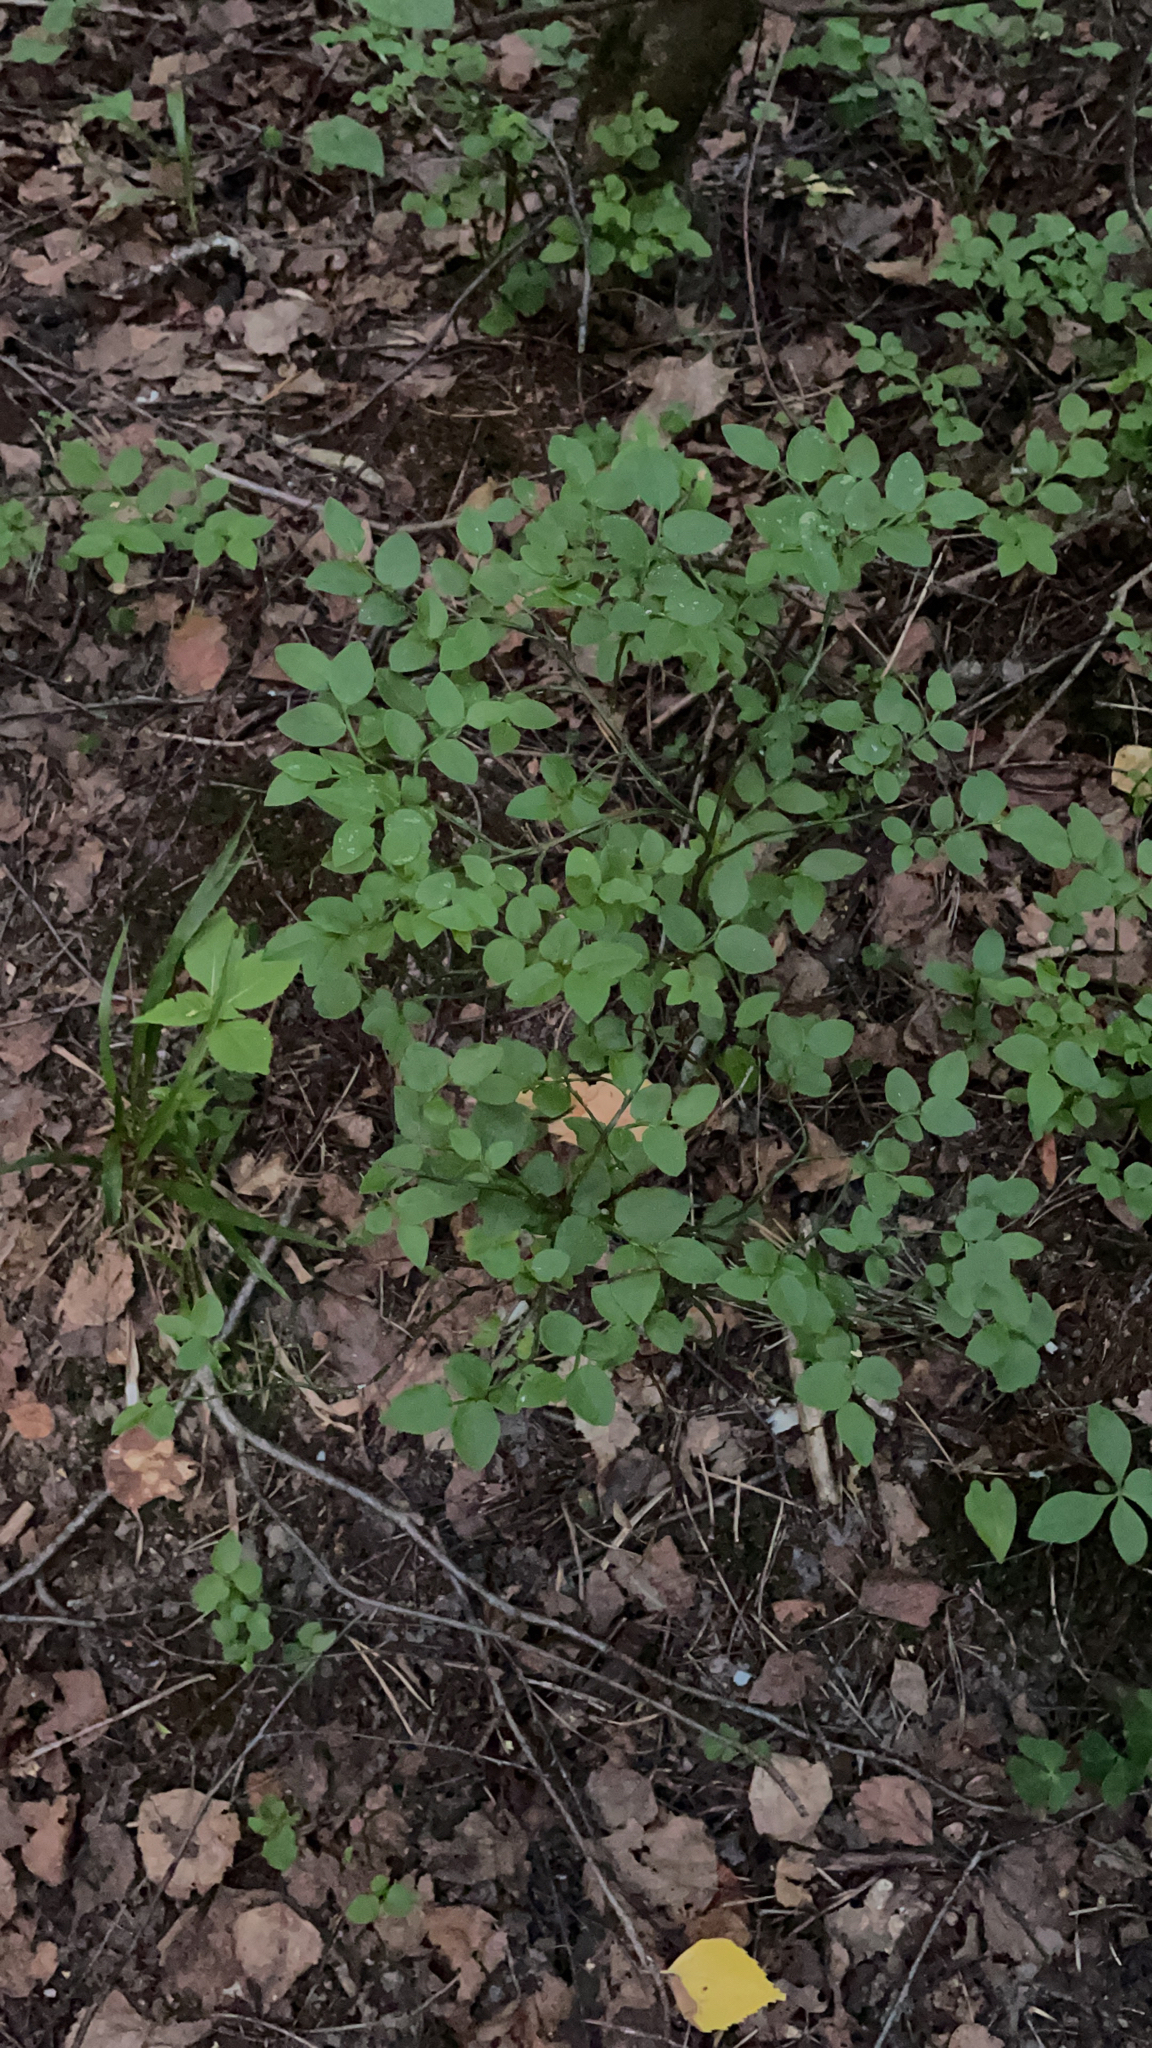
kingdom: Plantae
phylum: Tracheophyta
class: Magnoliopsida
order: Ericales
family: Ericaceae
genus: Vaccinium
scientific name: Vaccinium myrtillus
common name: Bilberry
